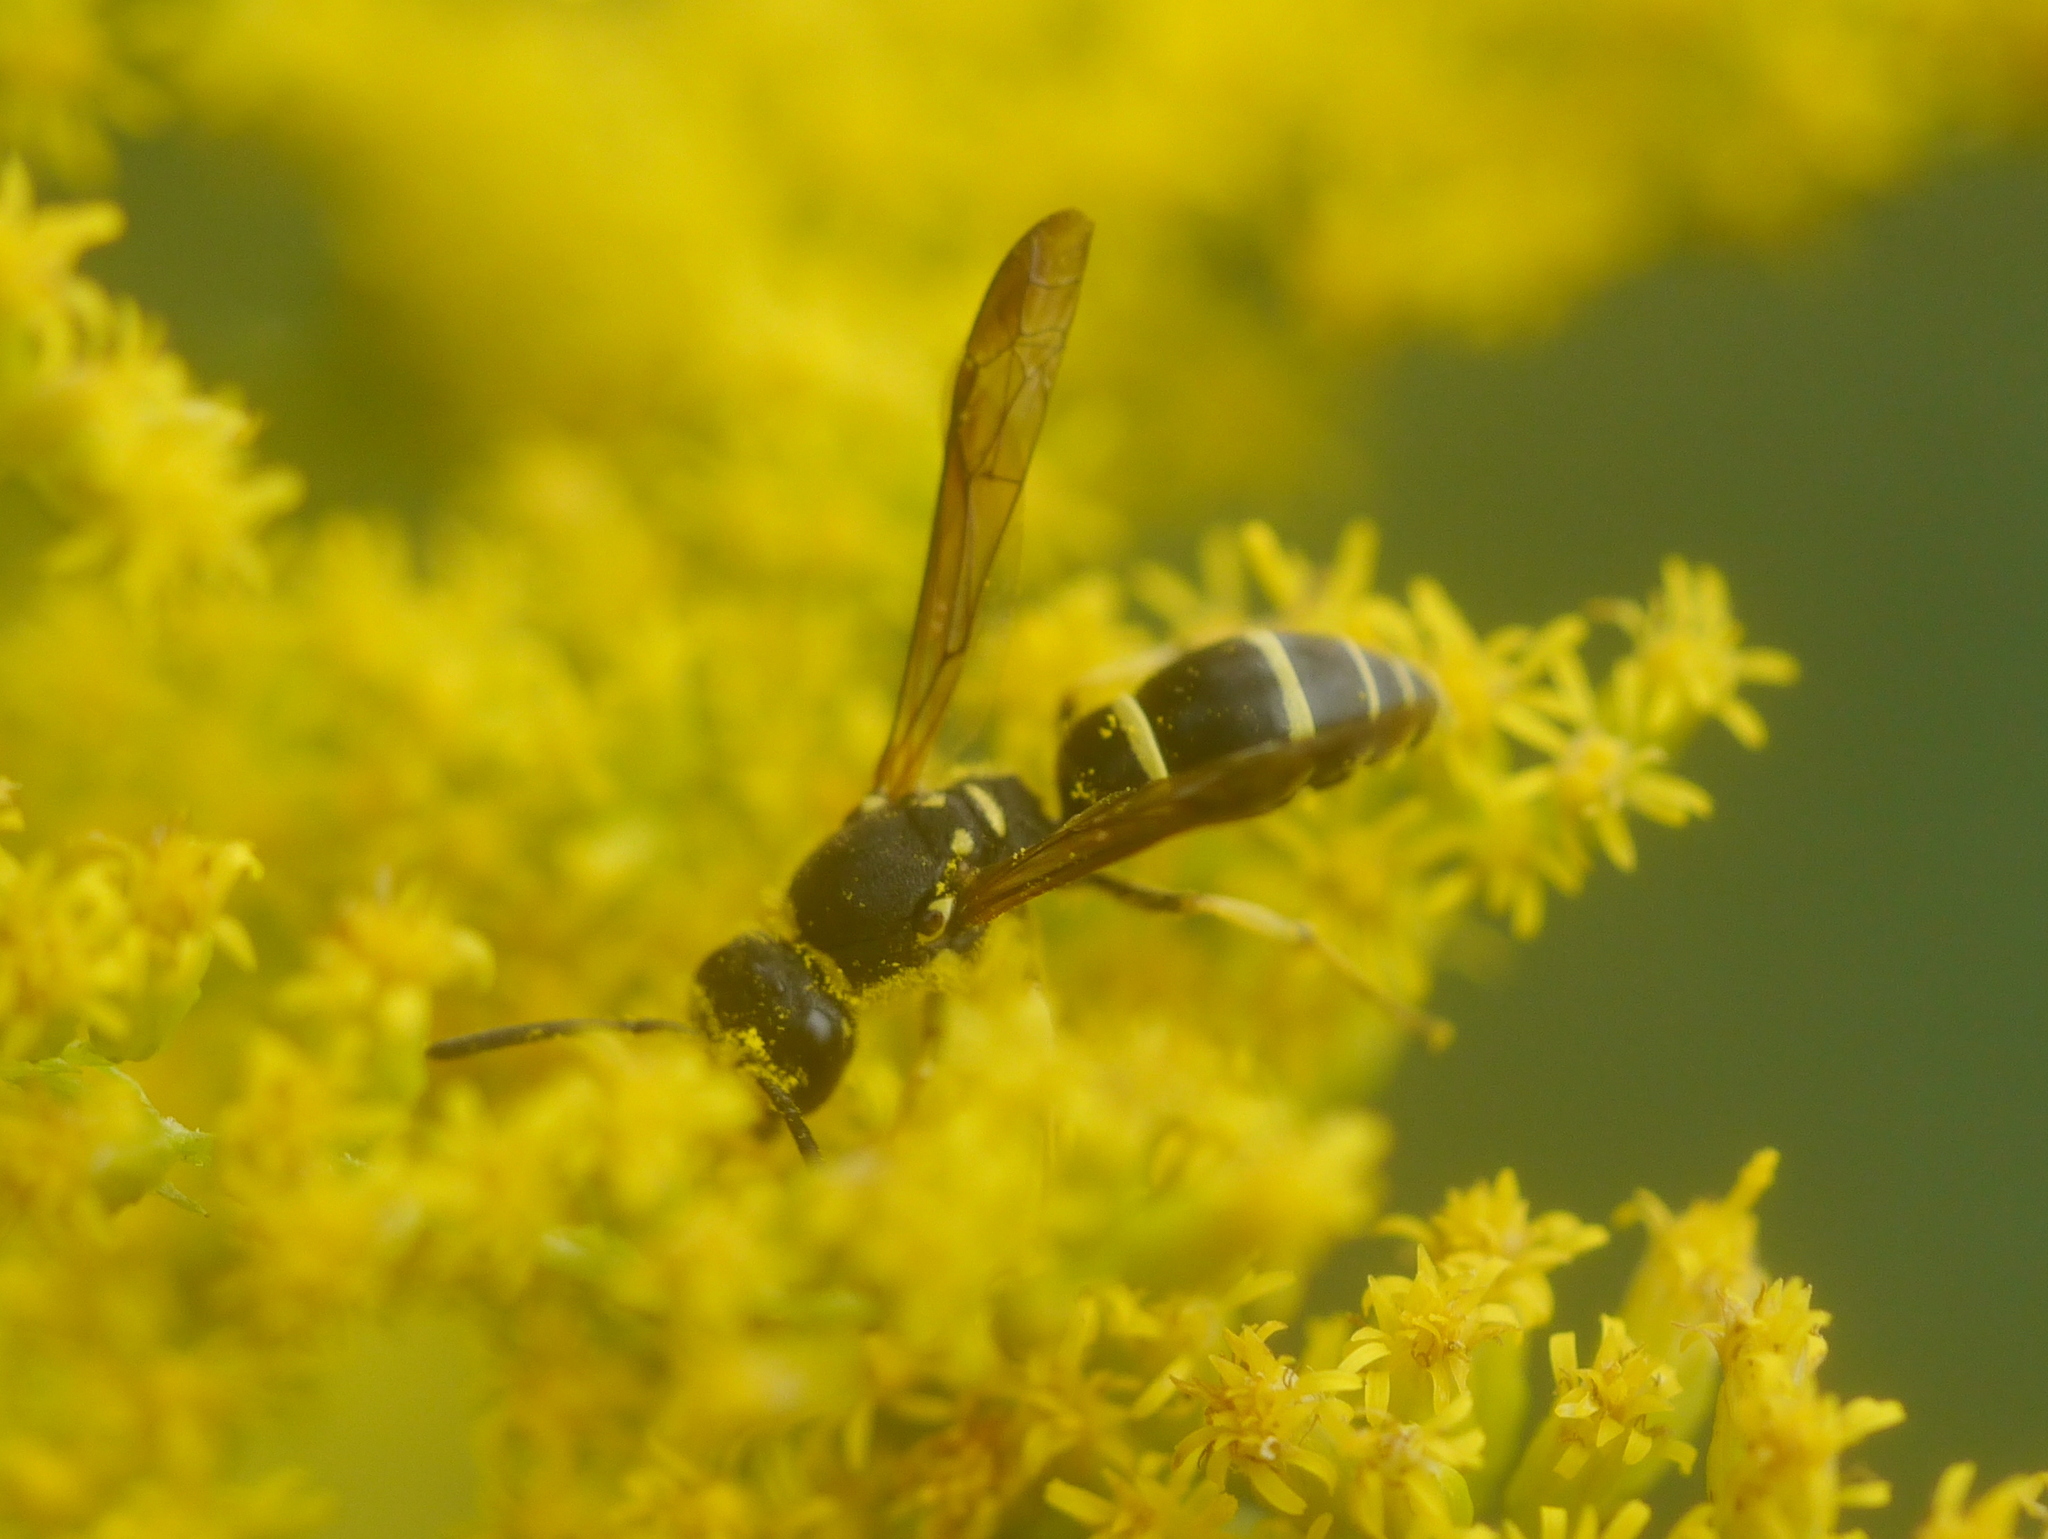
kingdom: Animalia
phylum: Arthropoda
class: Insecta
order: Hymenoptera
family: Vespidae
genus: Ancistrocerus
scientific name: Ancistrocerus adiabatus
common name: Bramble mason wasp
